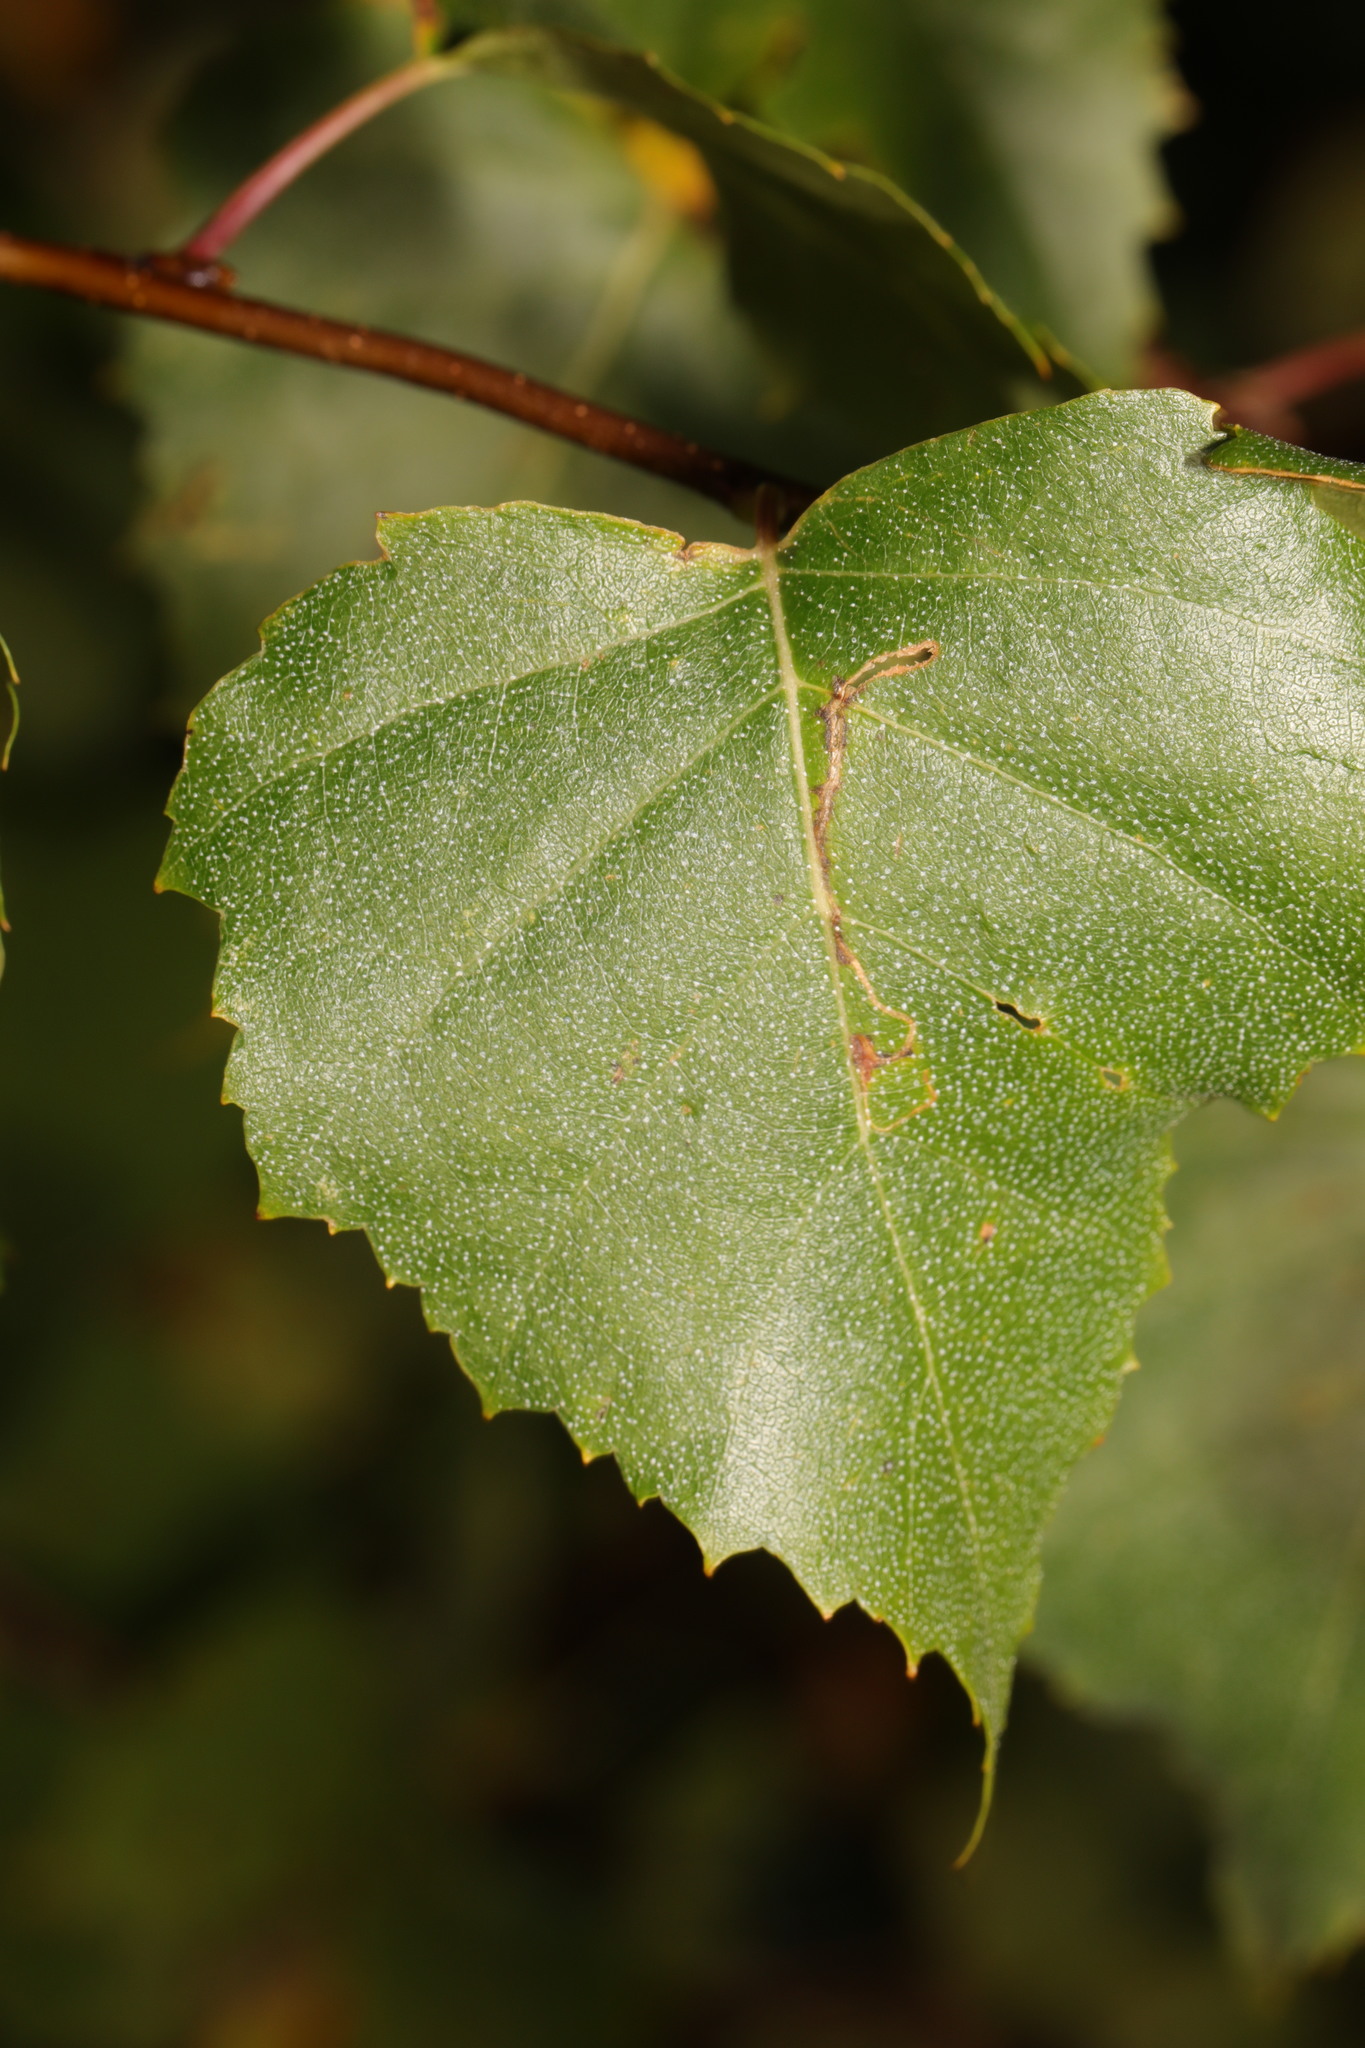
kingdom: Plantae
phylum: Tracheophyta
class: Magnoliopsida
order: Fagales
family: Betulaceae
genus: Betula
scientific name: Betula pendula
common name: Silver birch
